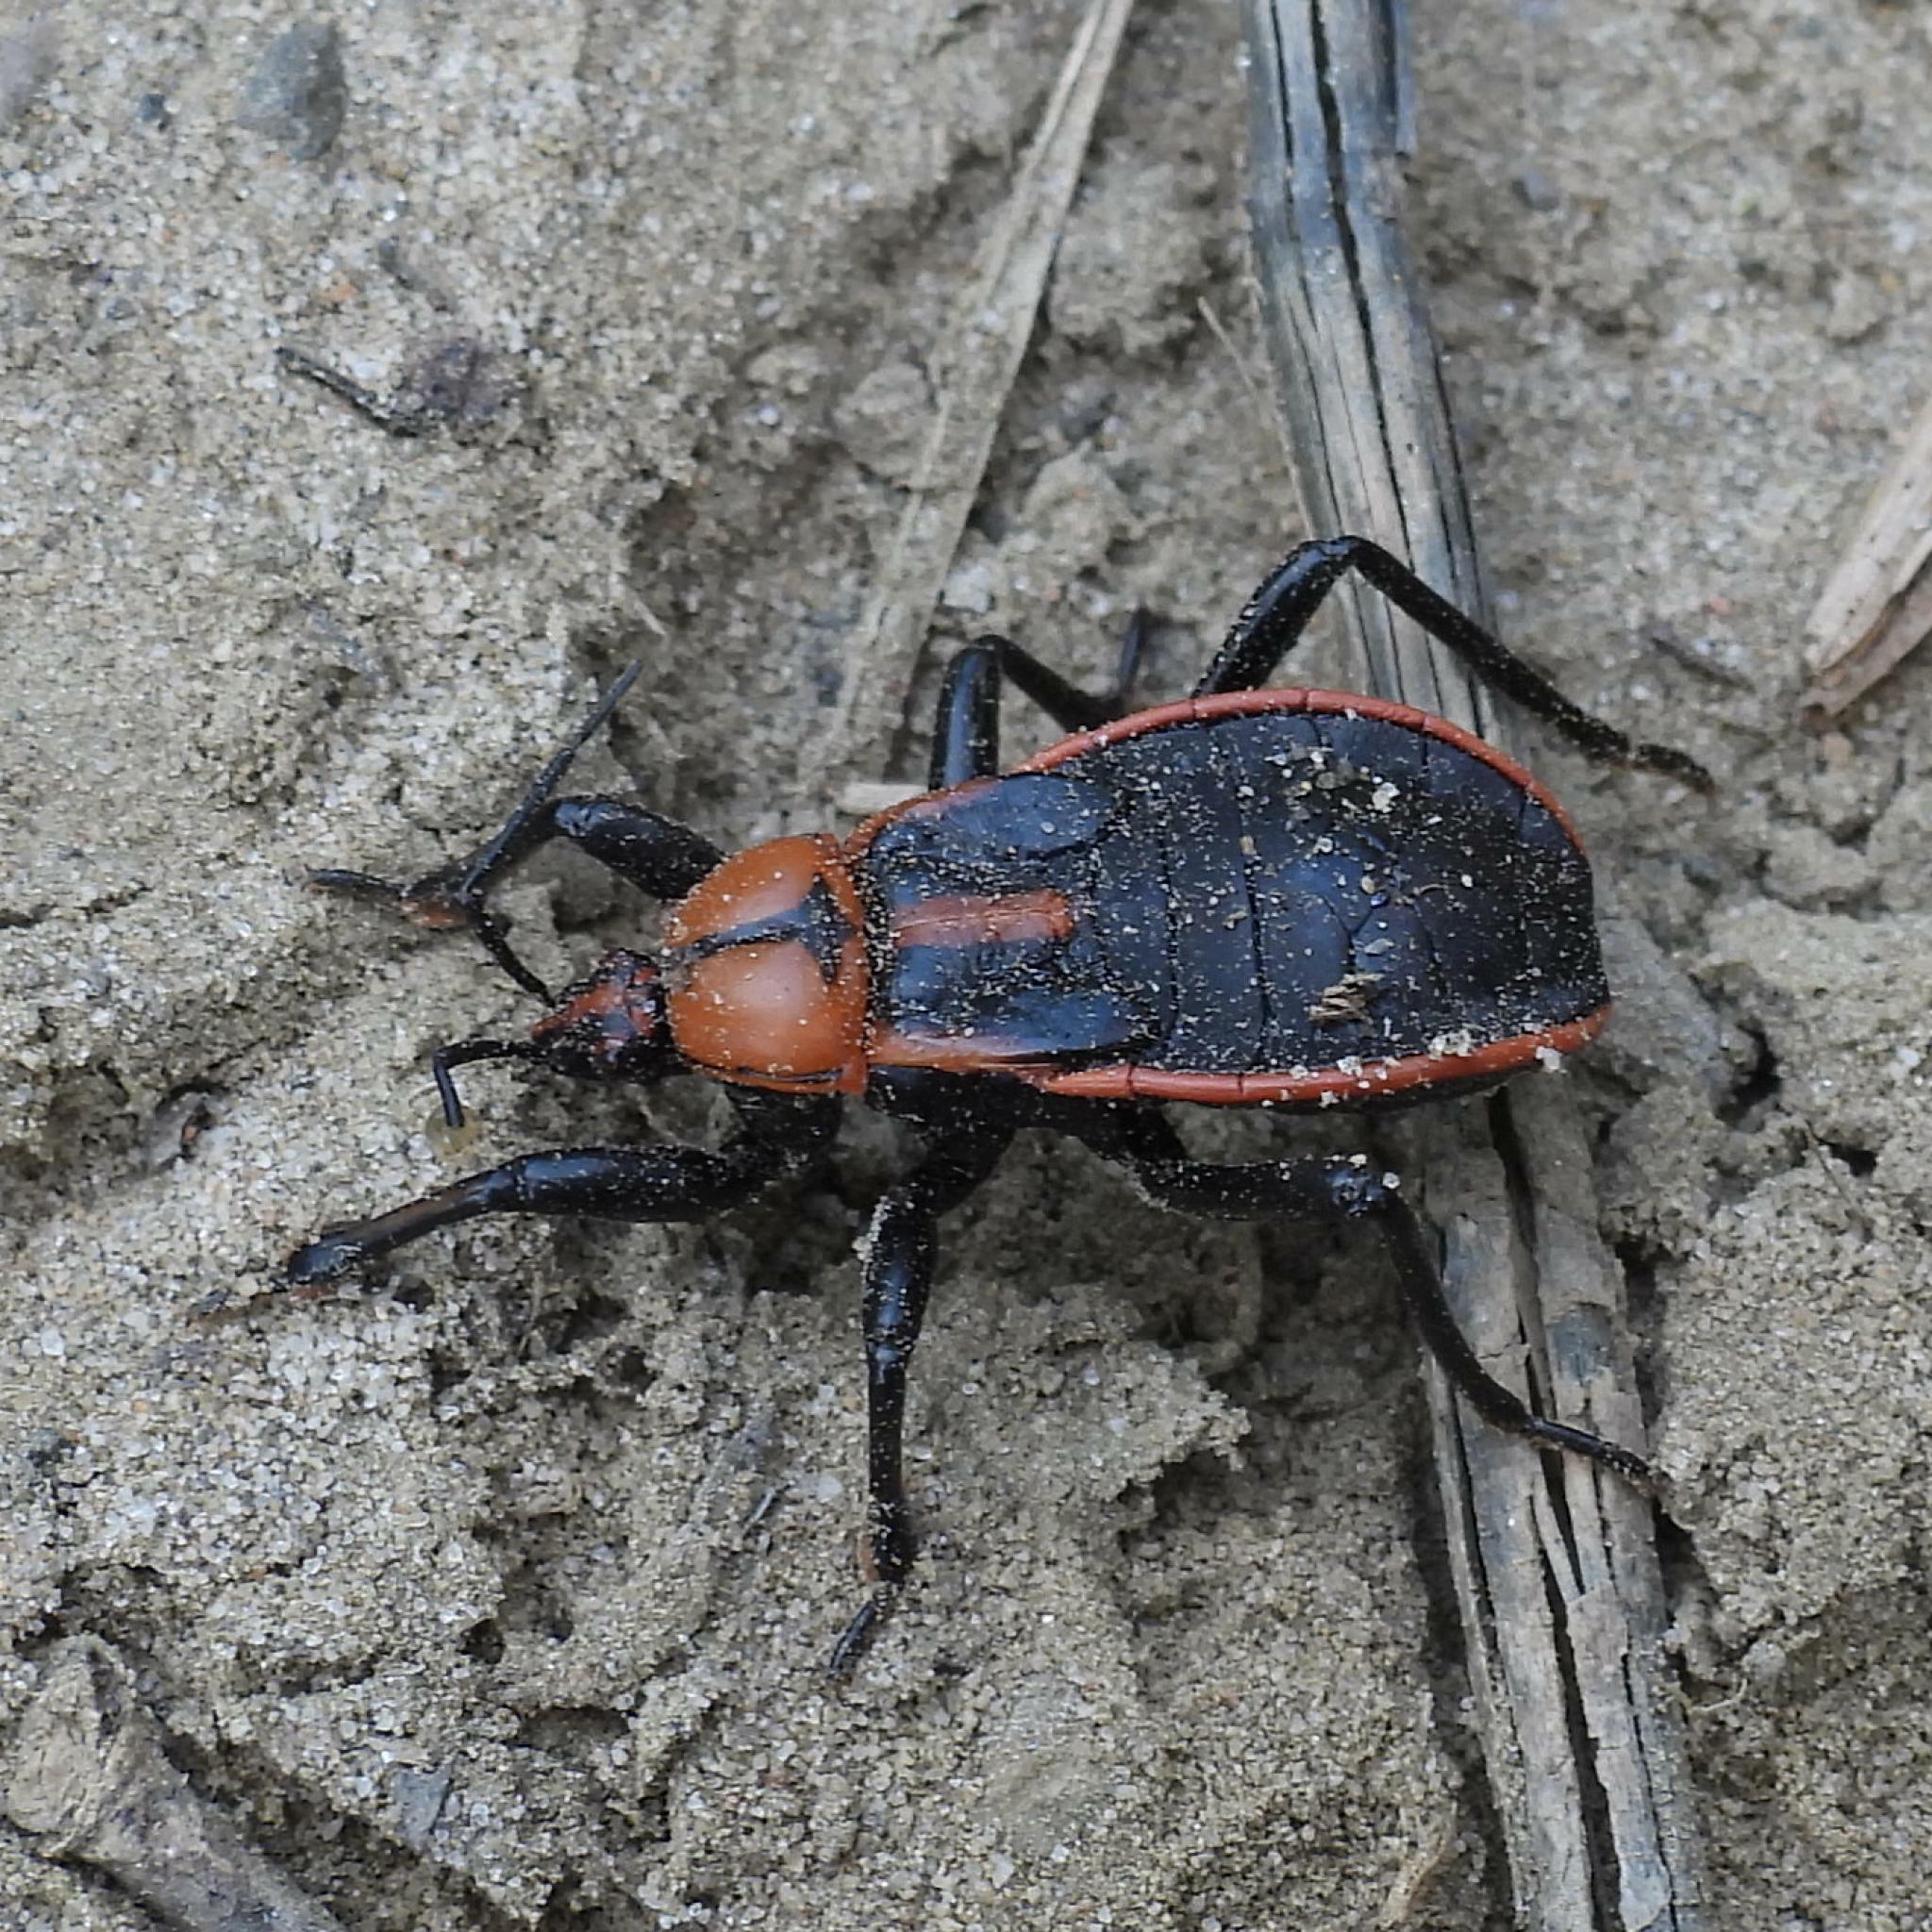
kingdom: Animalia
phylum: Arthropoda
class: Insecta
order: Hemiptera
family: Reduviidae
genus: Ectrichodia
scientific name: Ectrichodia crux
